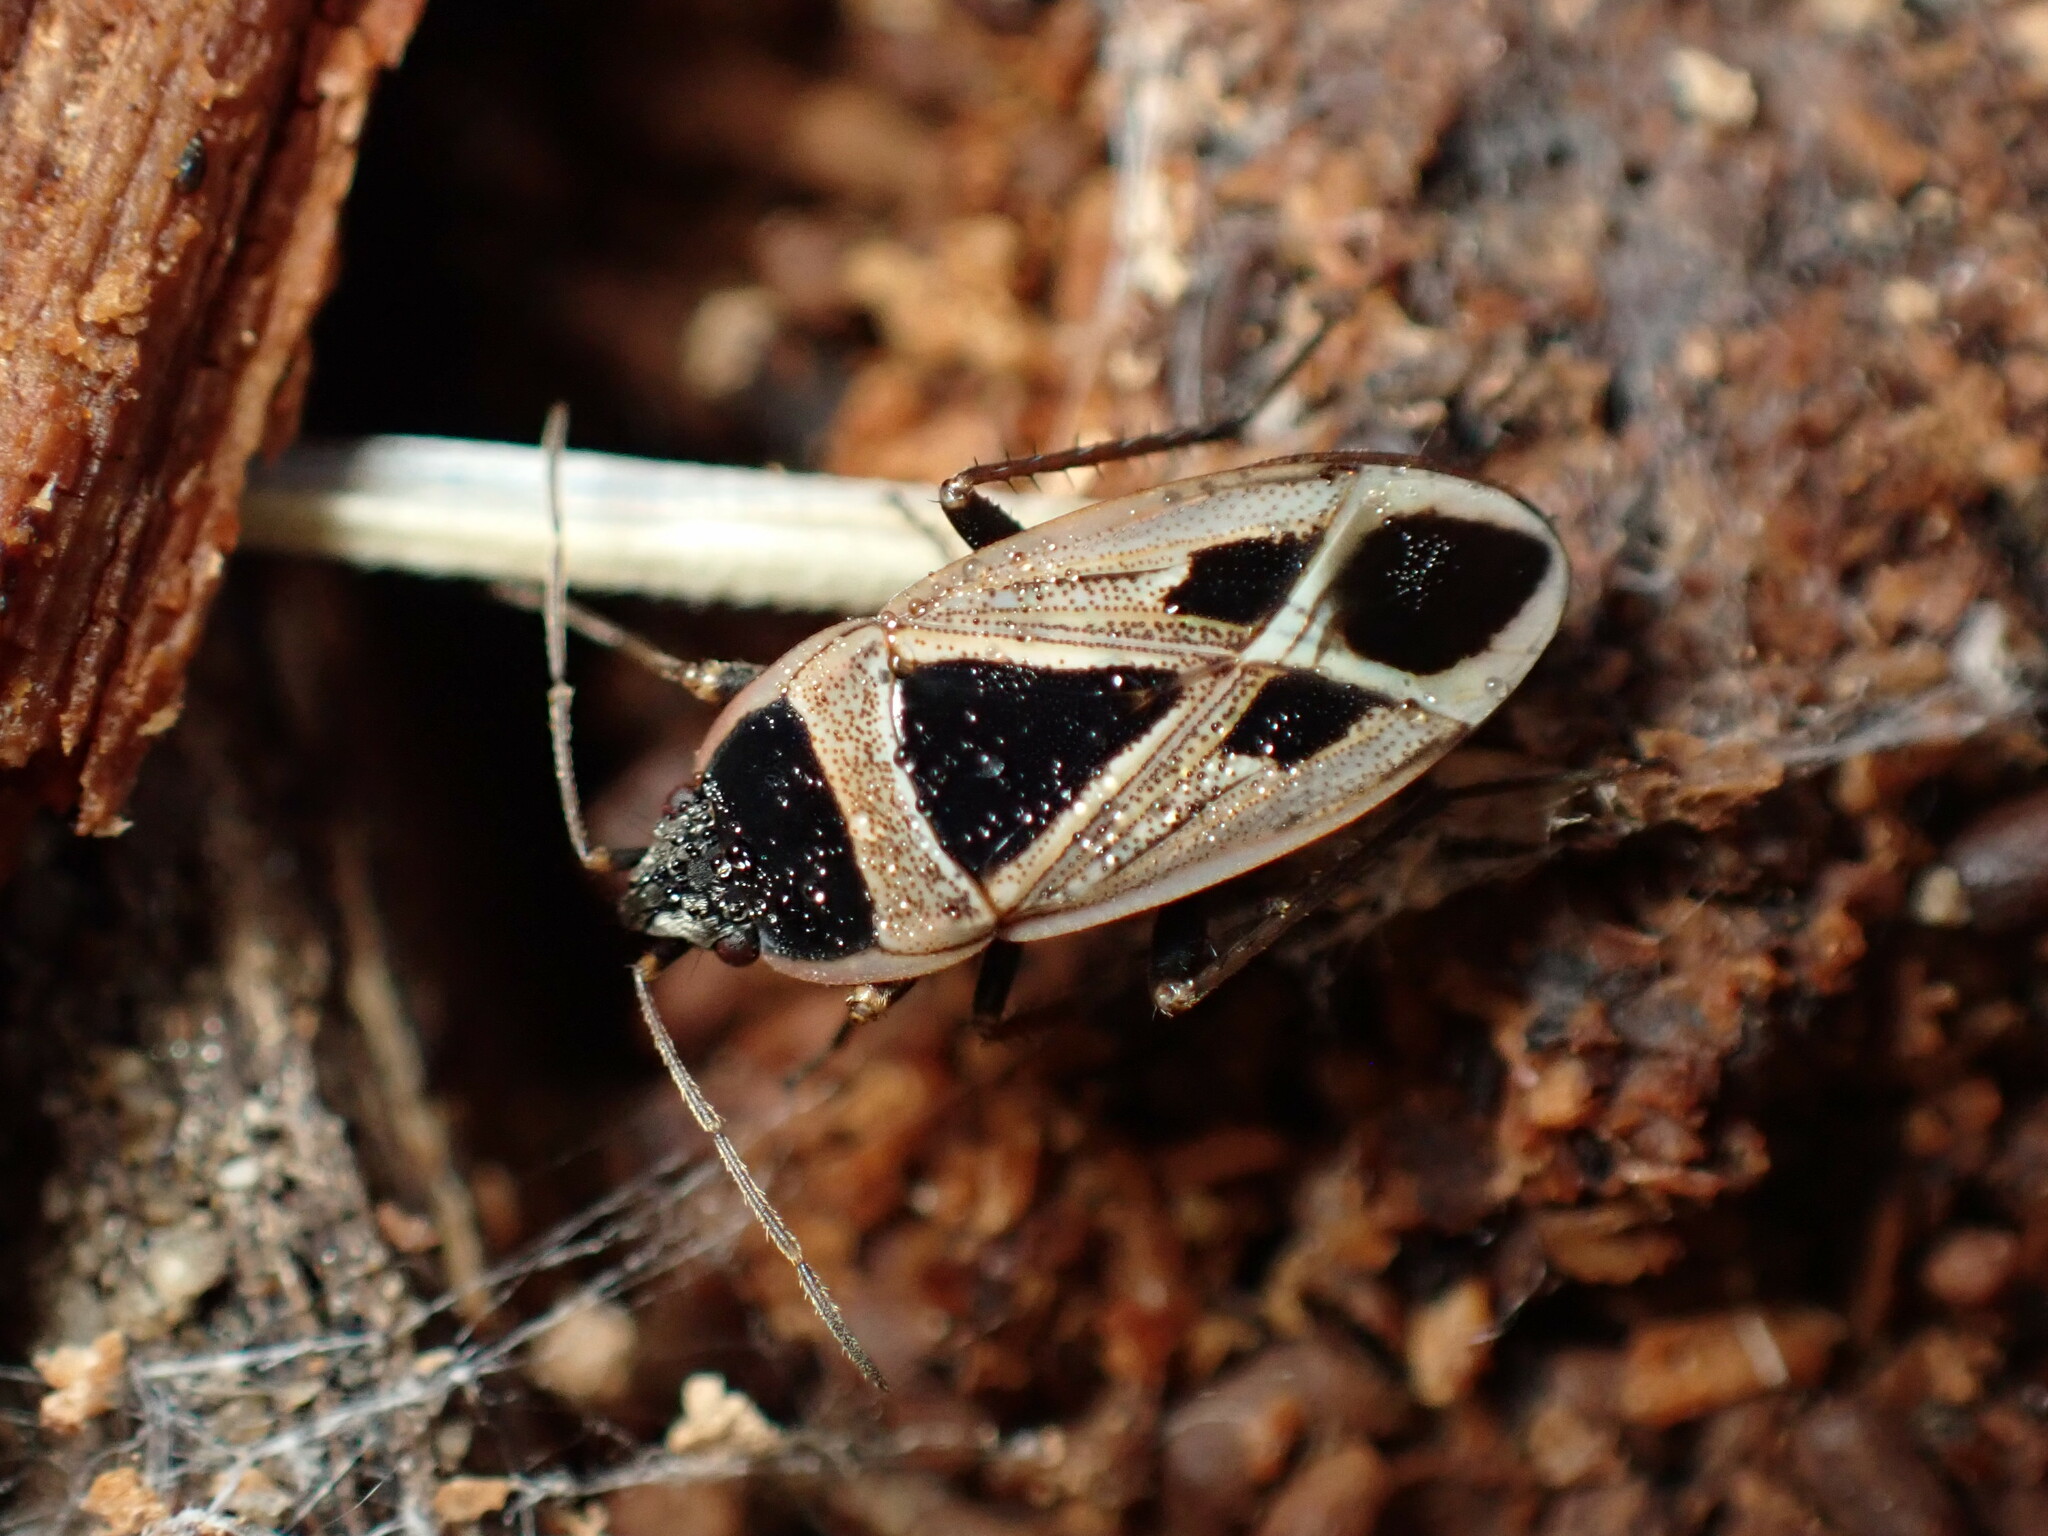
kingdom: Animalia
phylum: Arthropoda
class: Insecta
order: Hemiptera
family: Rhyparochromidae
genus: Xanthochilus
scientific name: Xanthochilus saturnius
